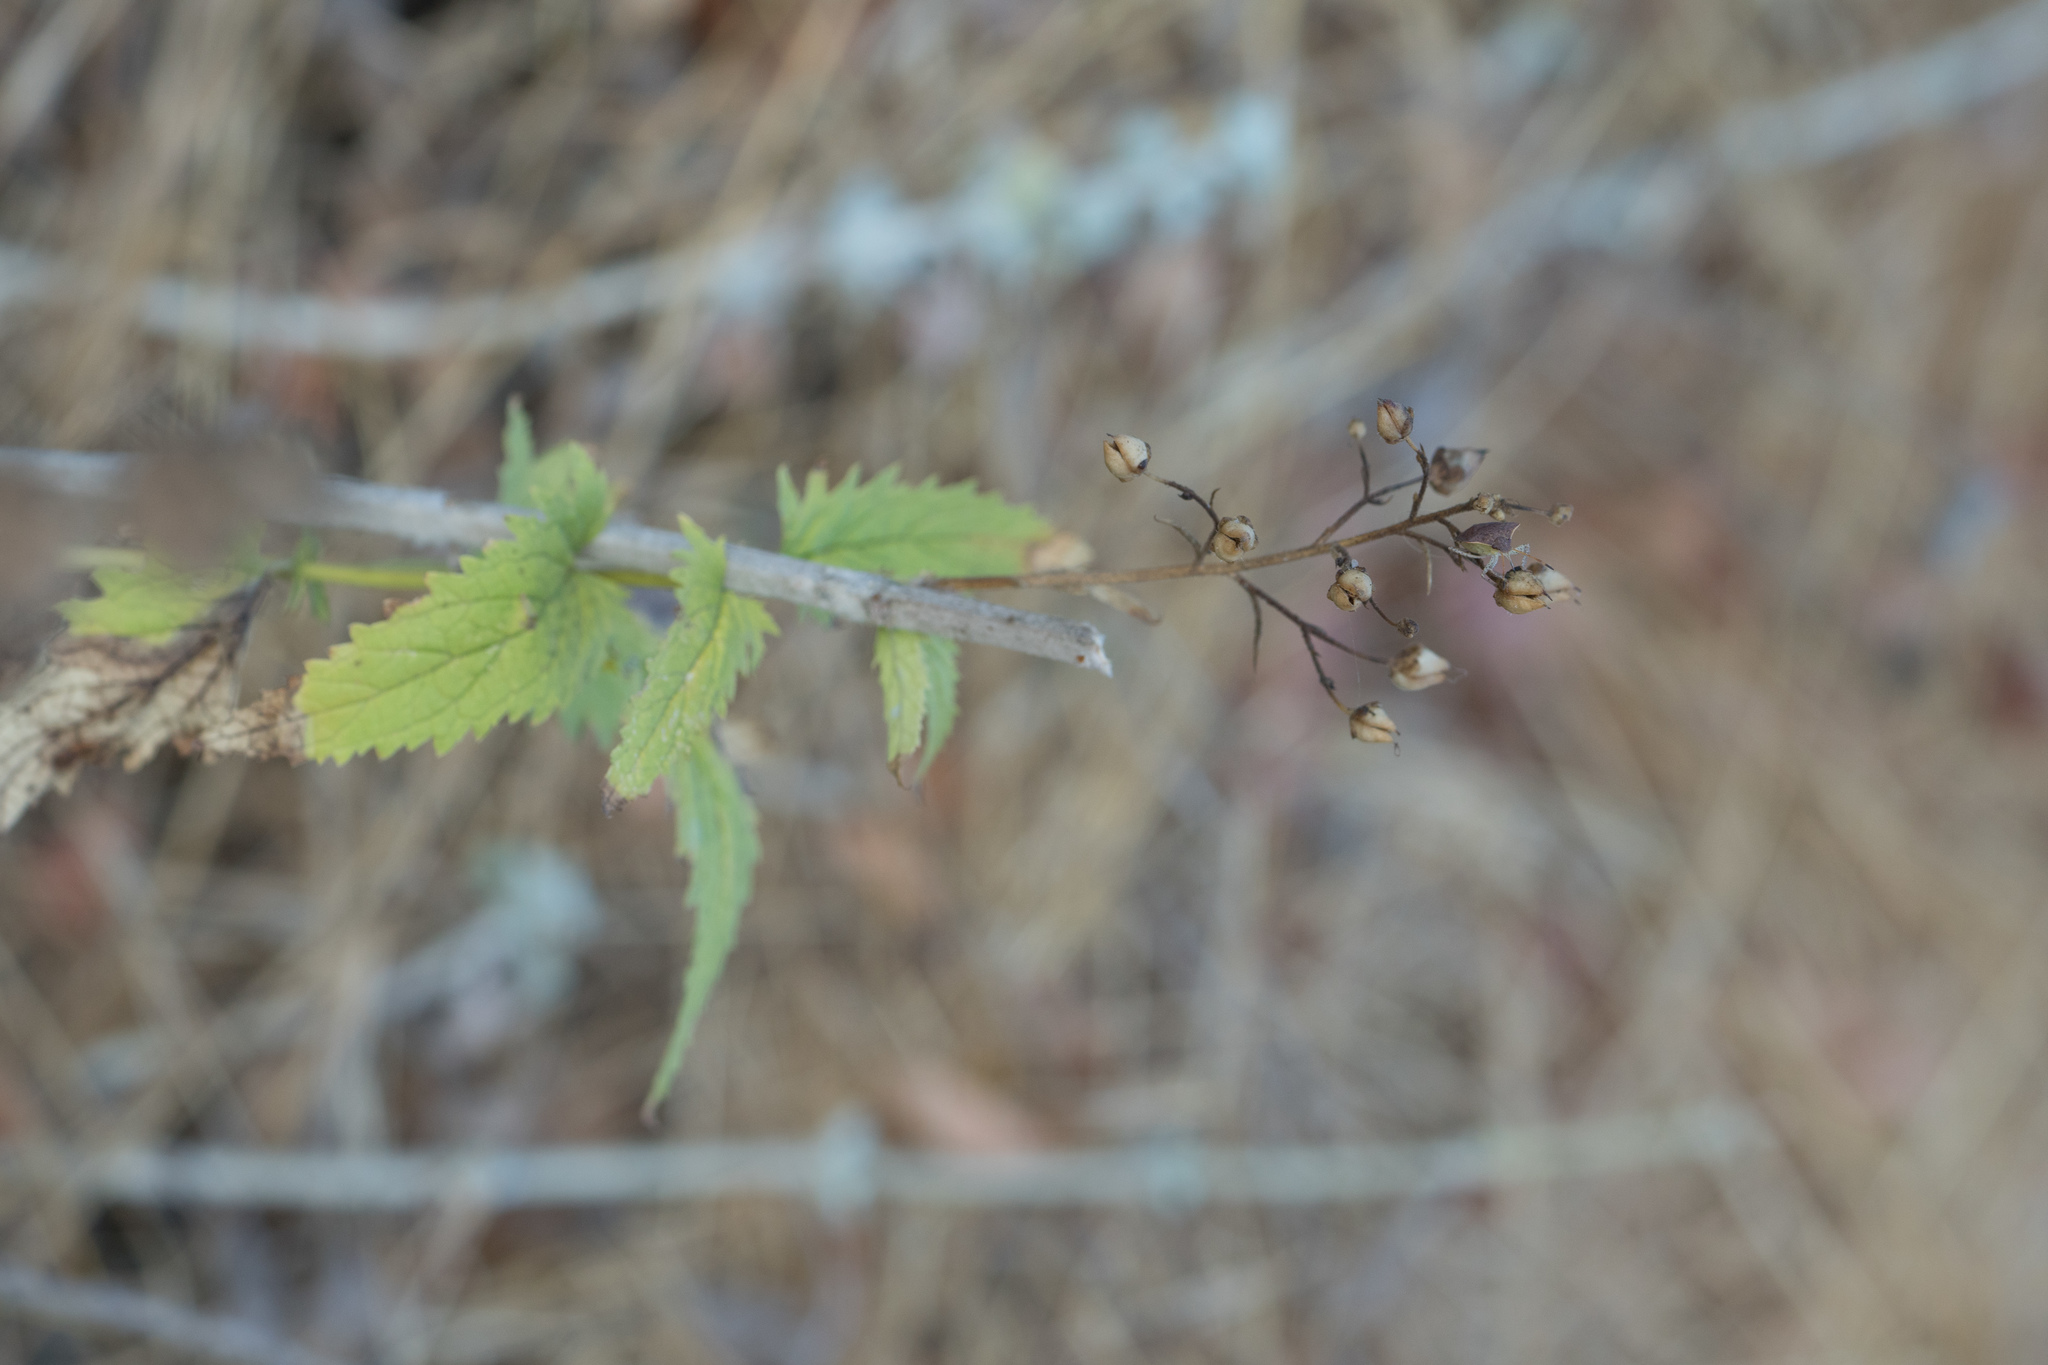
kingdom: Plantae
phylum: Tracheophyta
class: Magnoliopsida
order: Lamiales
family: Scrophulariaceae
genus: Scrophularia
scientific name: Scrophularia californica
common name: California figwort
